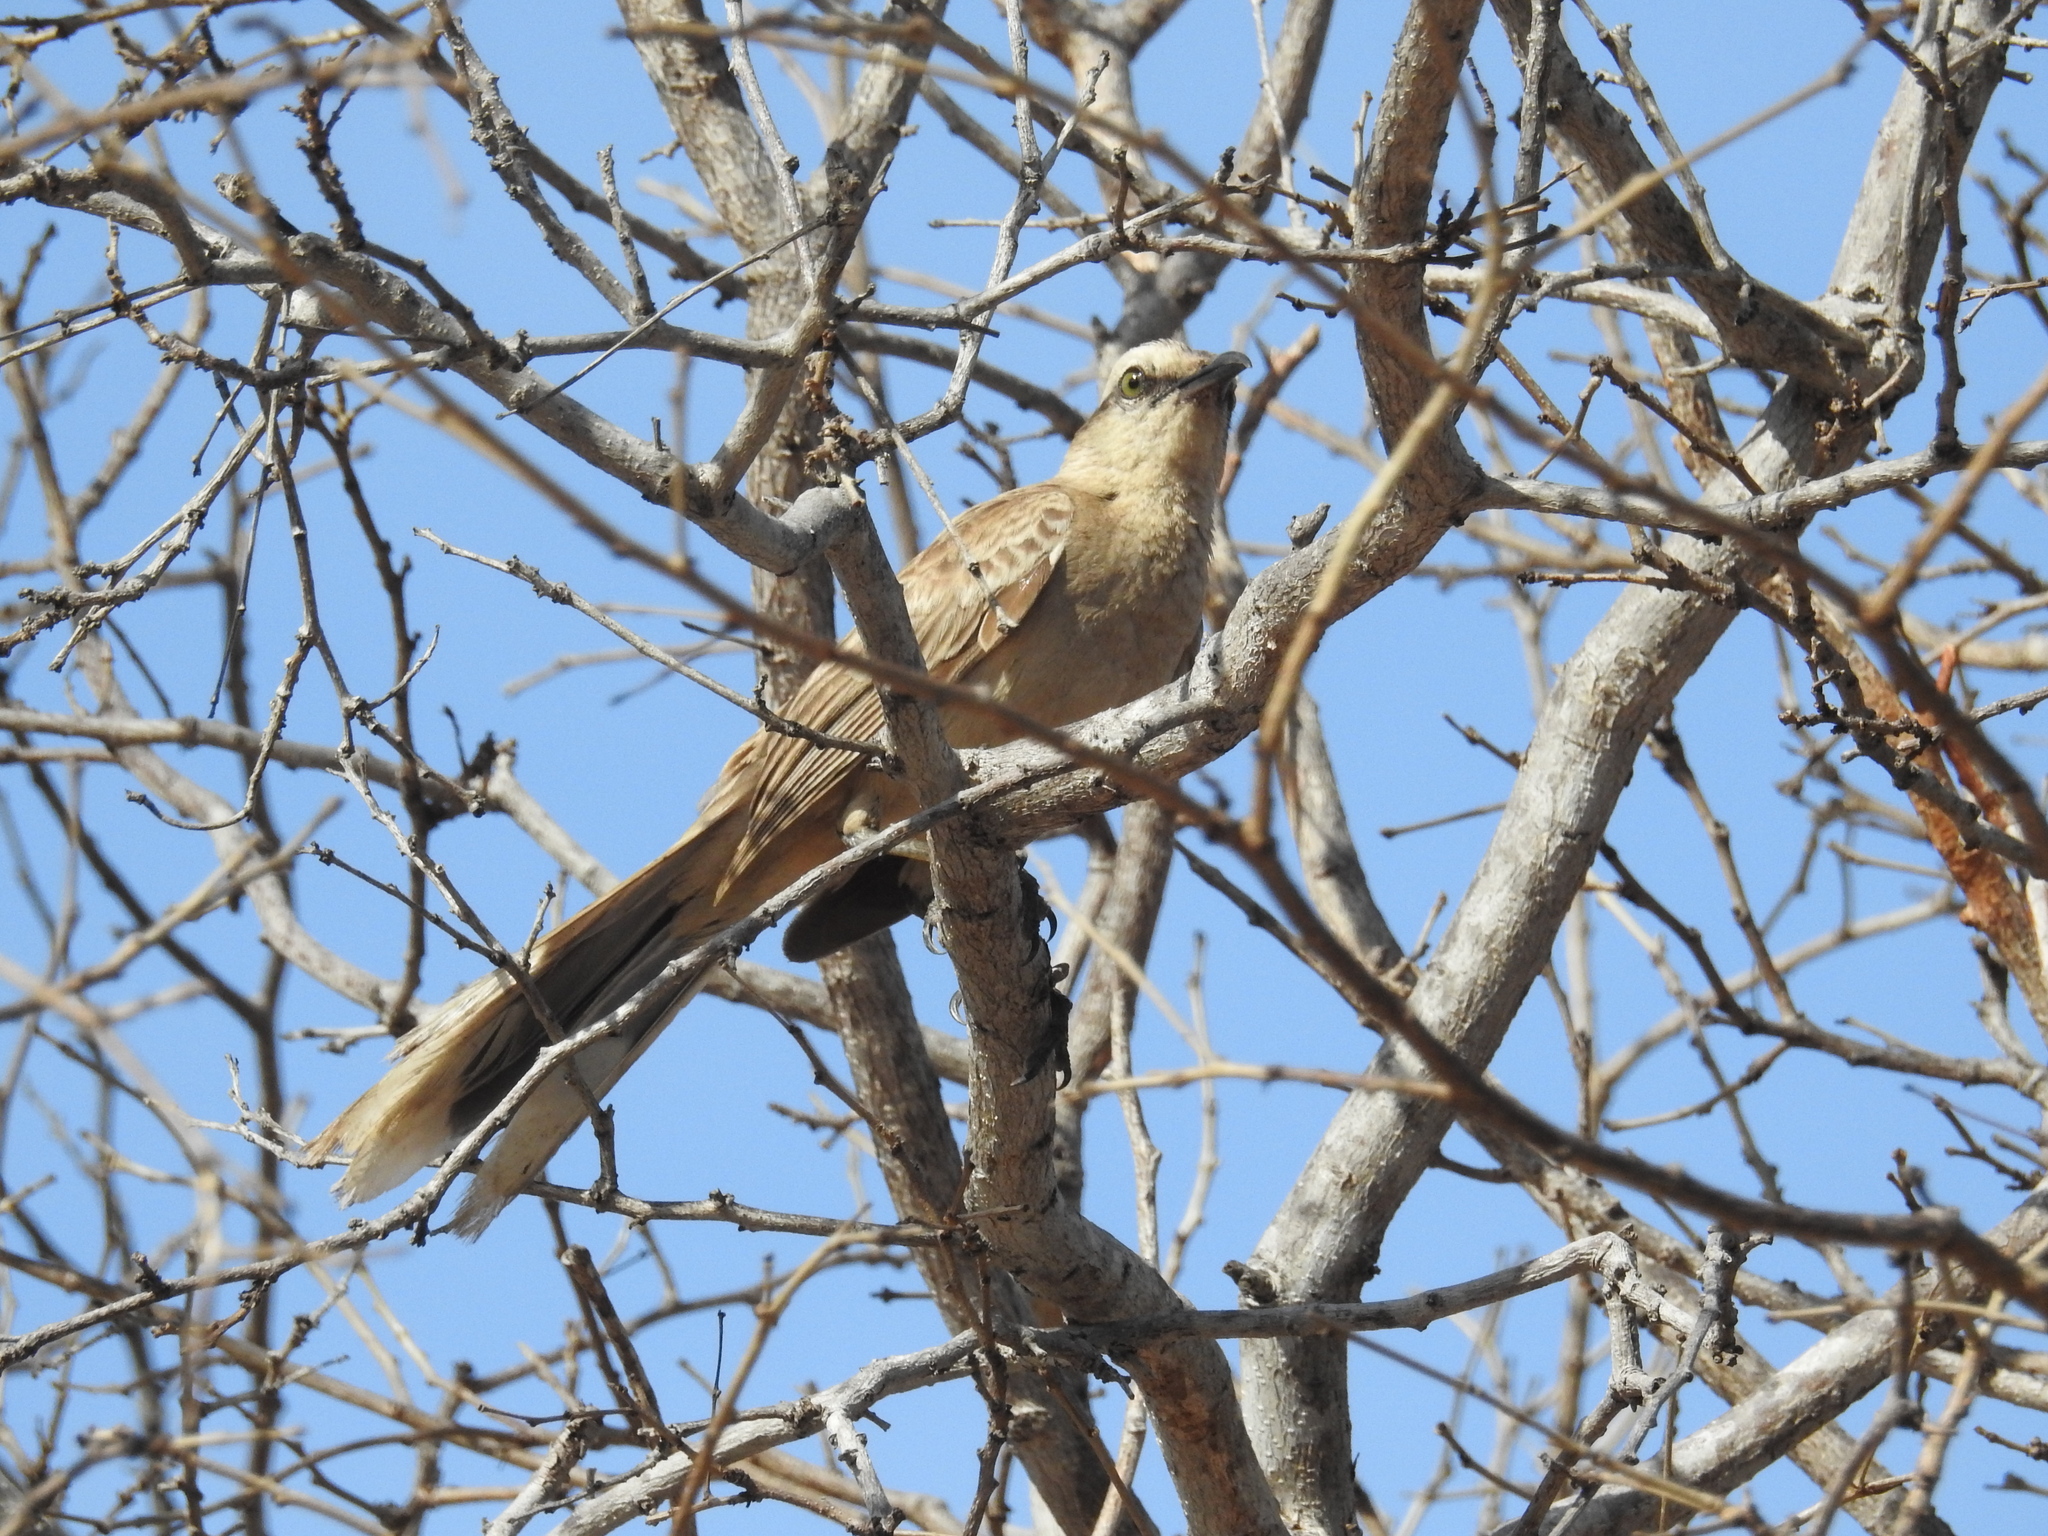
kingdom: Animalia
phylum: Chordata
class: Aves
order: Passeriformes
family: Mimidae
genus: Mimus
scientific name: Mimus saturninus
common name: Chalk-browed mockingbird
